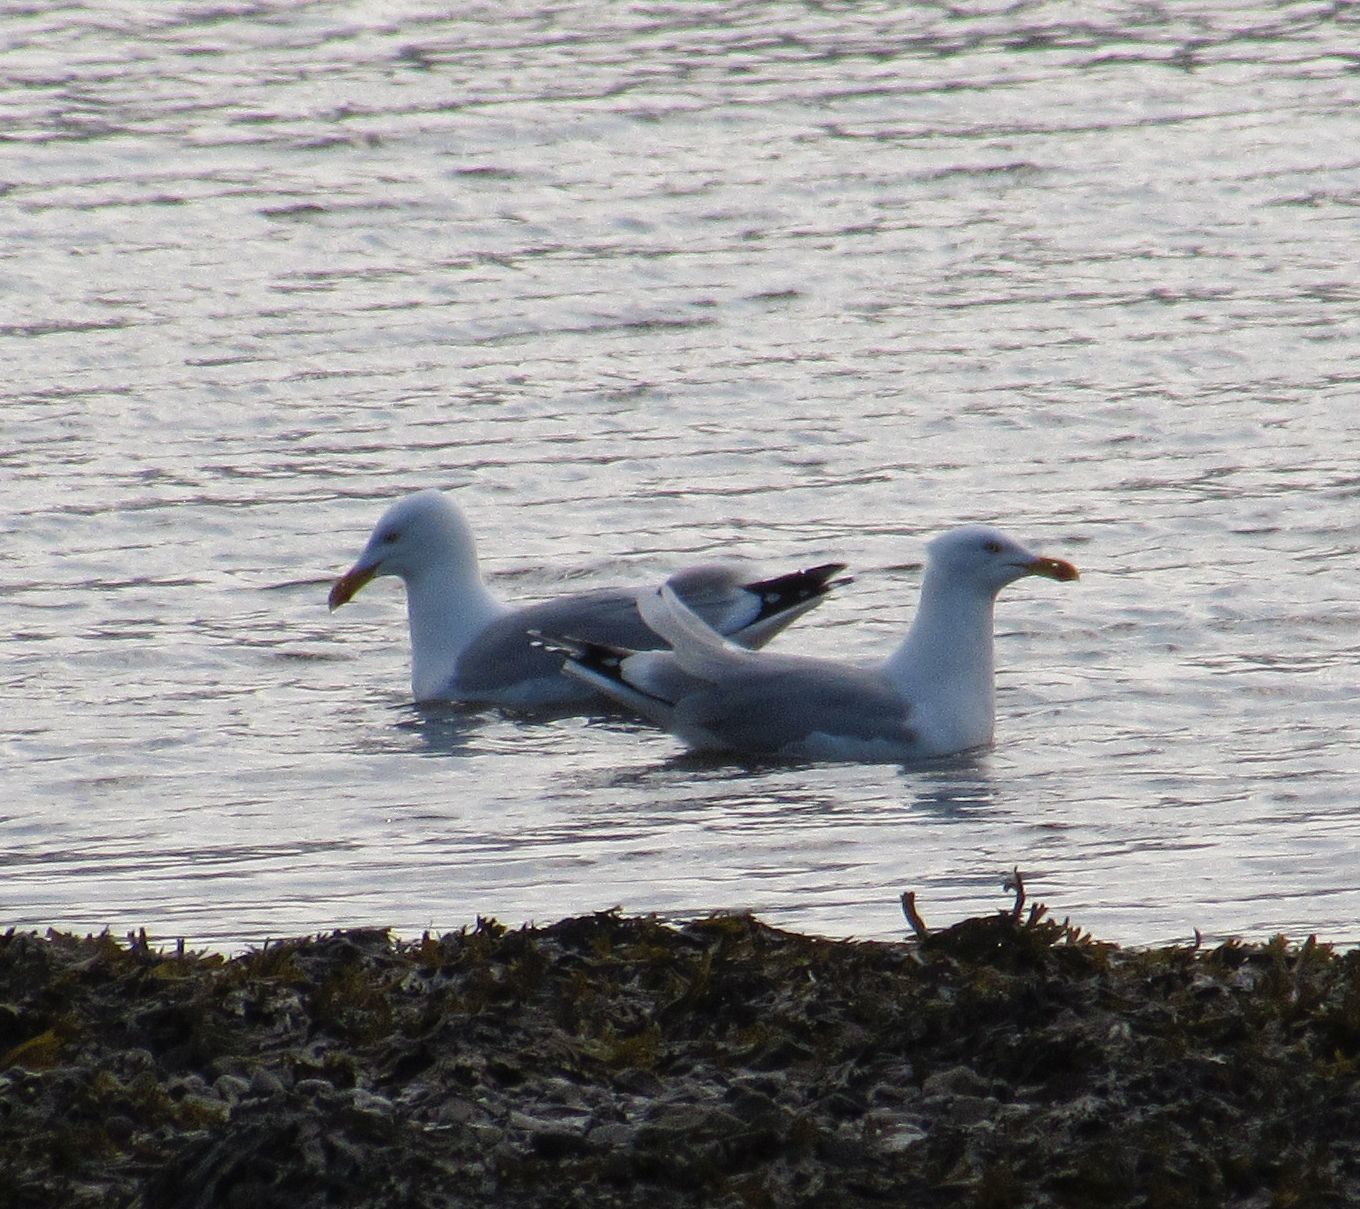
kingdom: Animalia
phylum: Chordata
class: Aves
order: Charadriiformes
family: Laridae
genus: Larus
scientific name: Larus argentatus
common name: Herring gull
